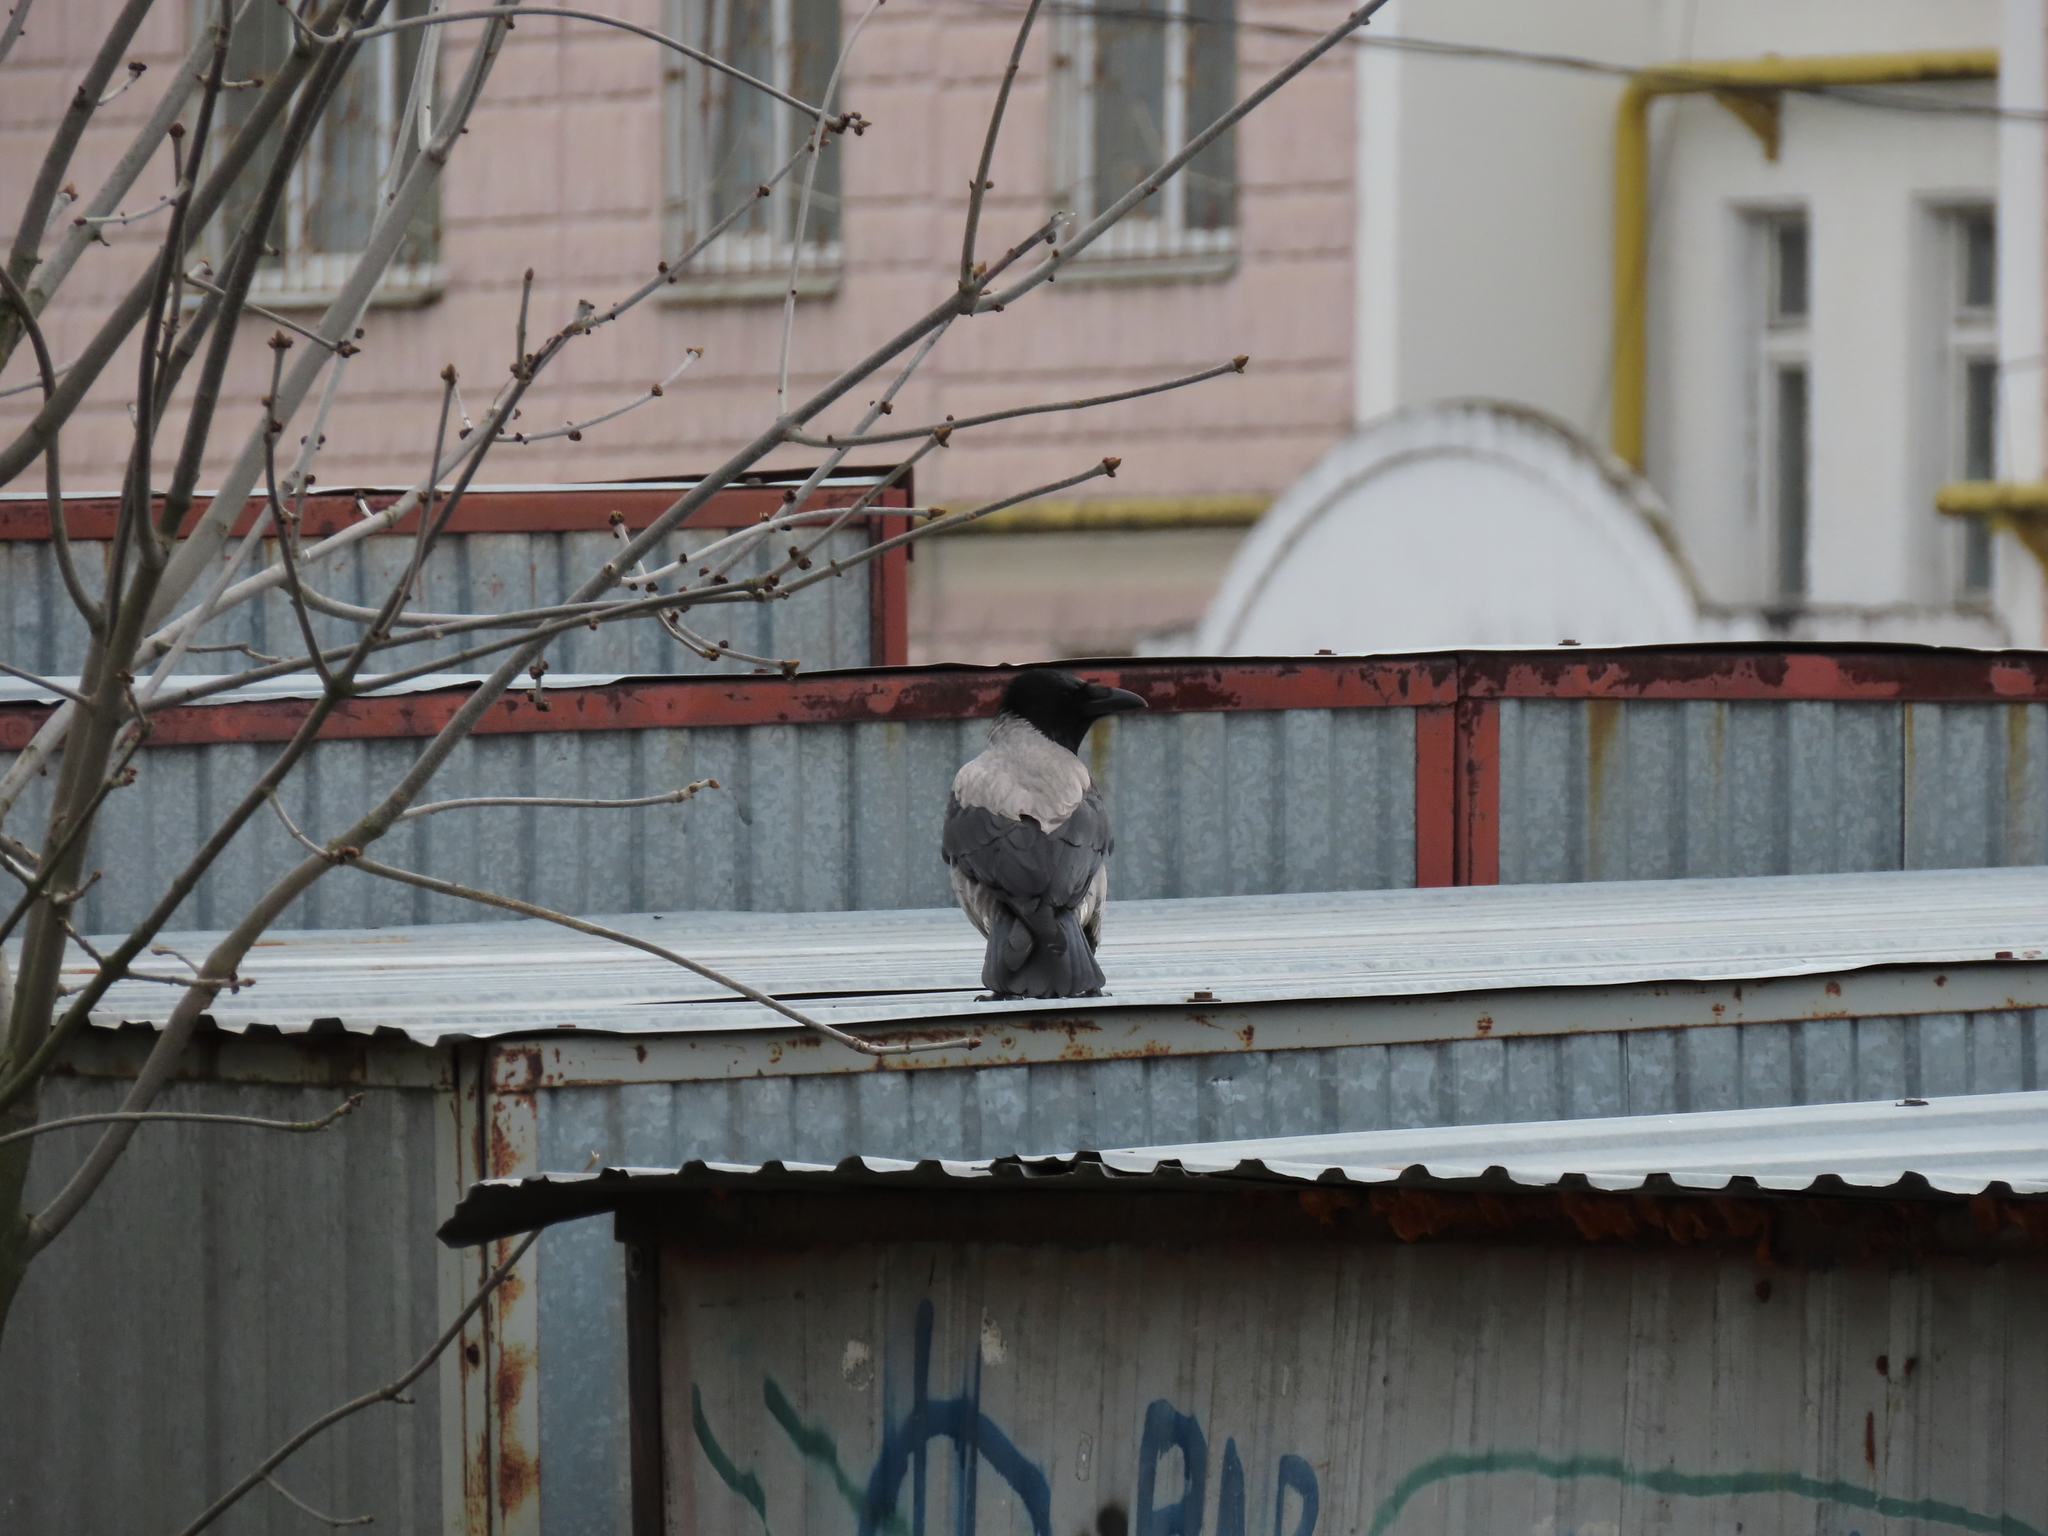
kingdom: Animalia
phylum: Chordata
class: Aves
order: Passeriformes
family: Corvidae
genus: Corvus
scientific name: Corvus cornix
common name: Hooded crow
